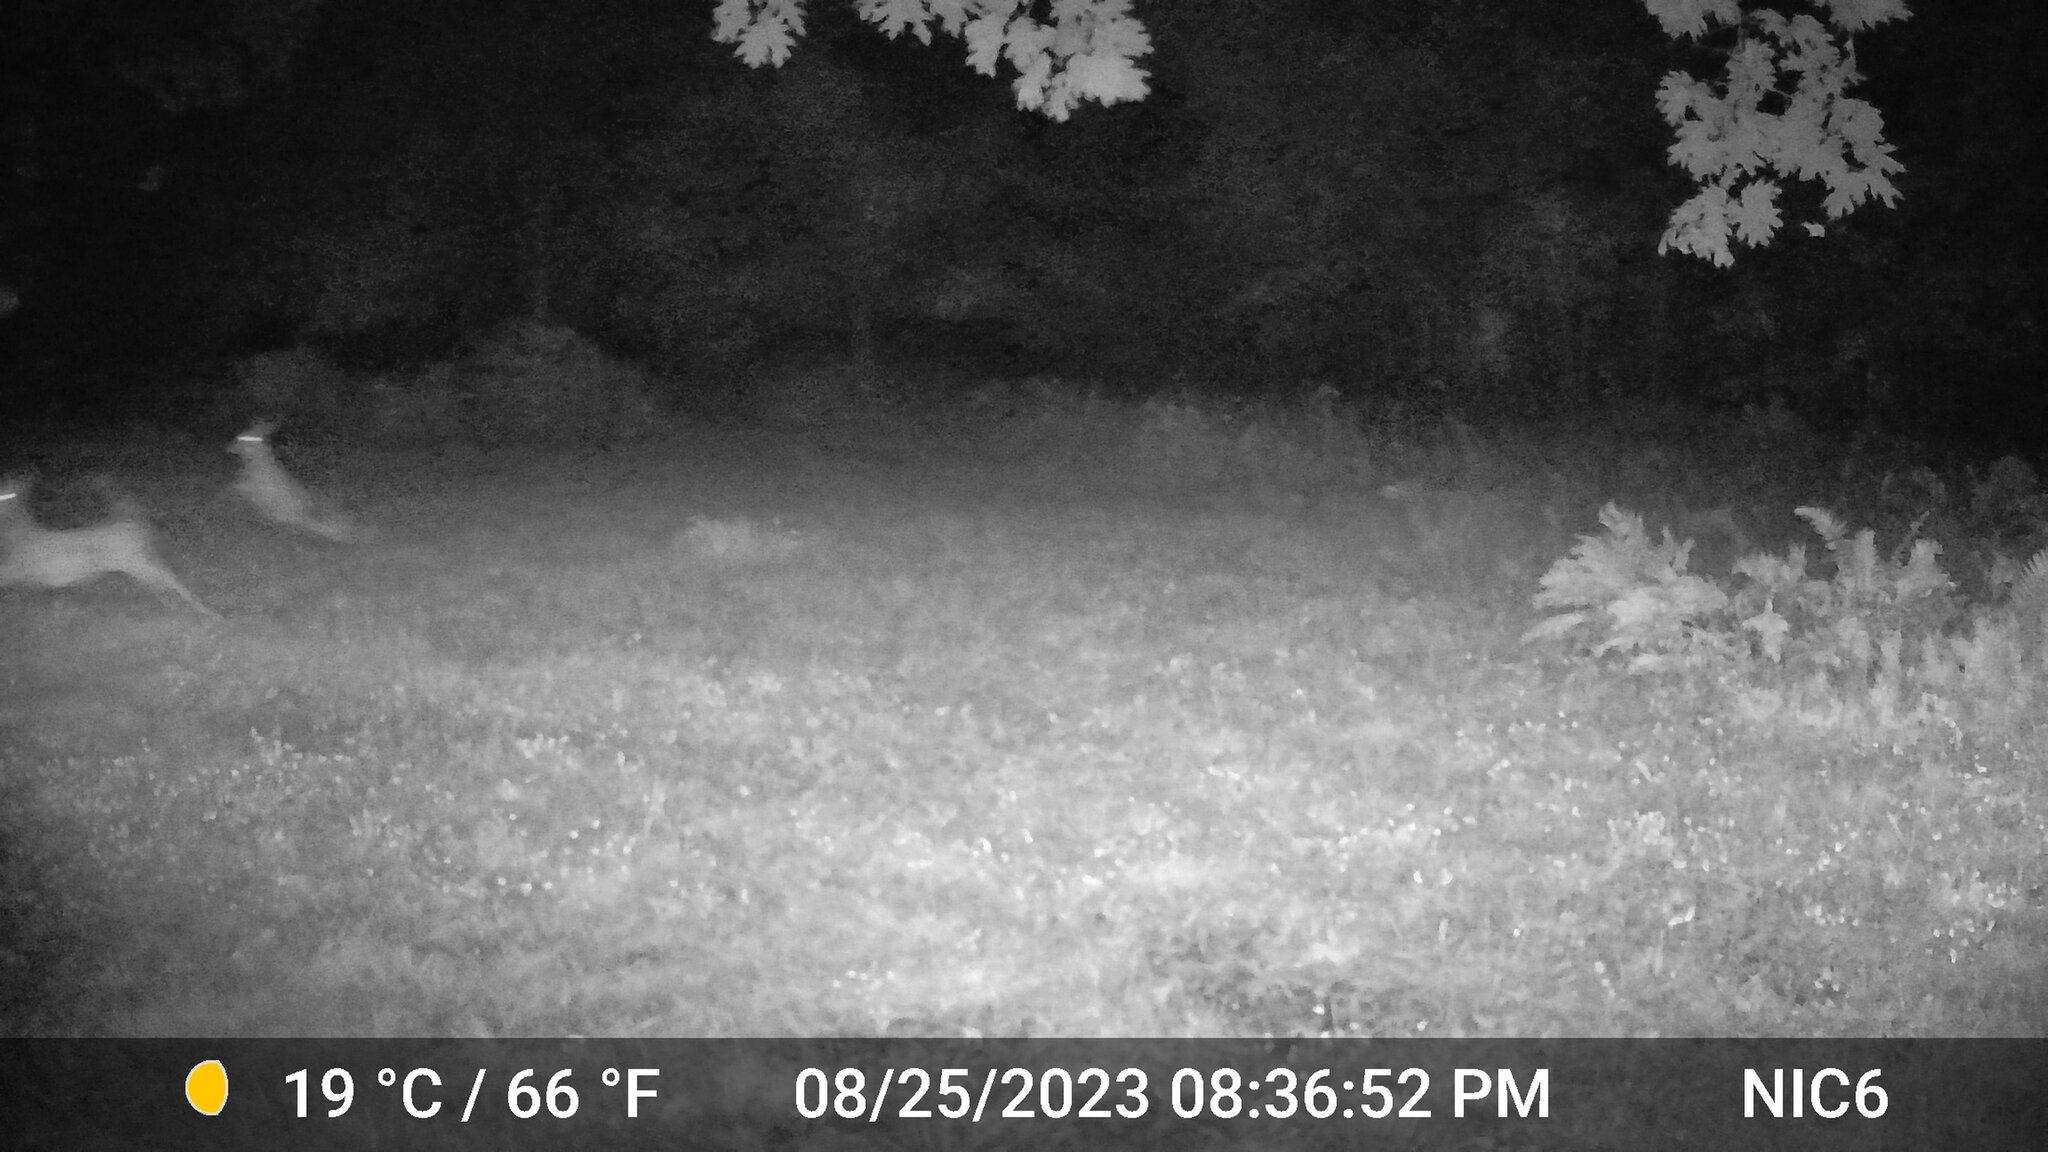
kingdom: Animalia
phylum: Chordata
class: Mammalia
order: Artiodactyla
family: Cervidae
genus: Odocoileus
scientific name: Odocoileus virginianus
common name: White-tailed deer
